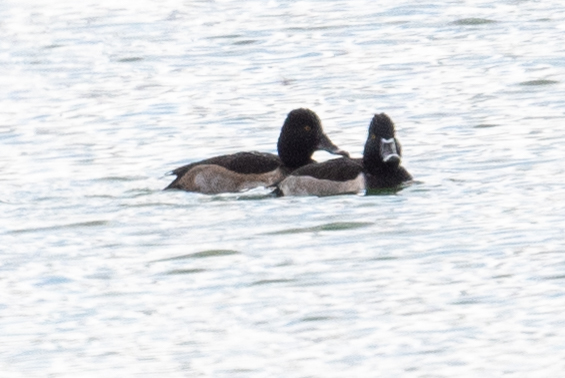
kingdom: Animalia
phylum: Chordata
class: Aves
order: Anseriformes
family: Anatidae
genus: Aythya
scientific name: Aythya collaris
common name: Ring-necked duck
